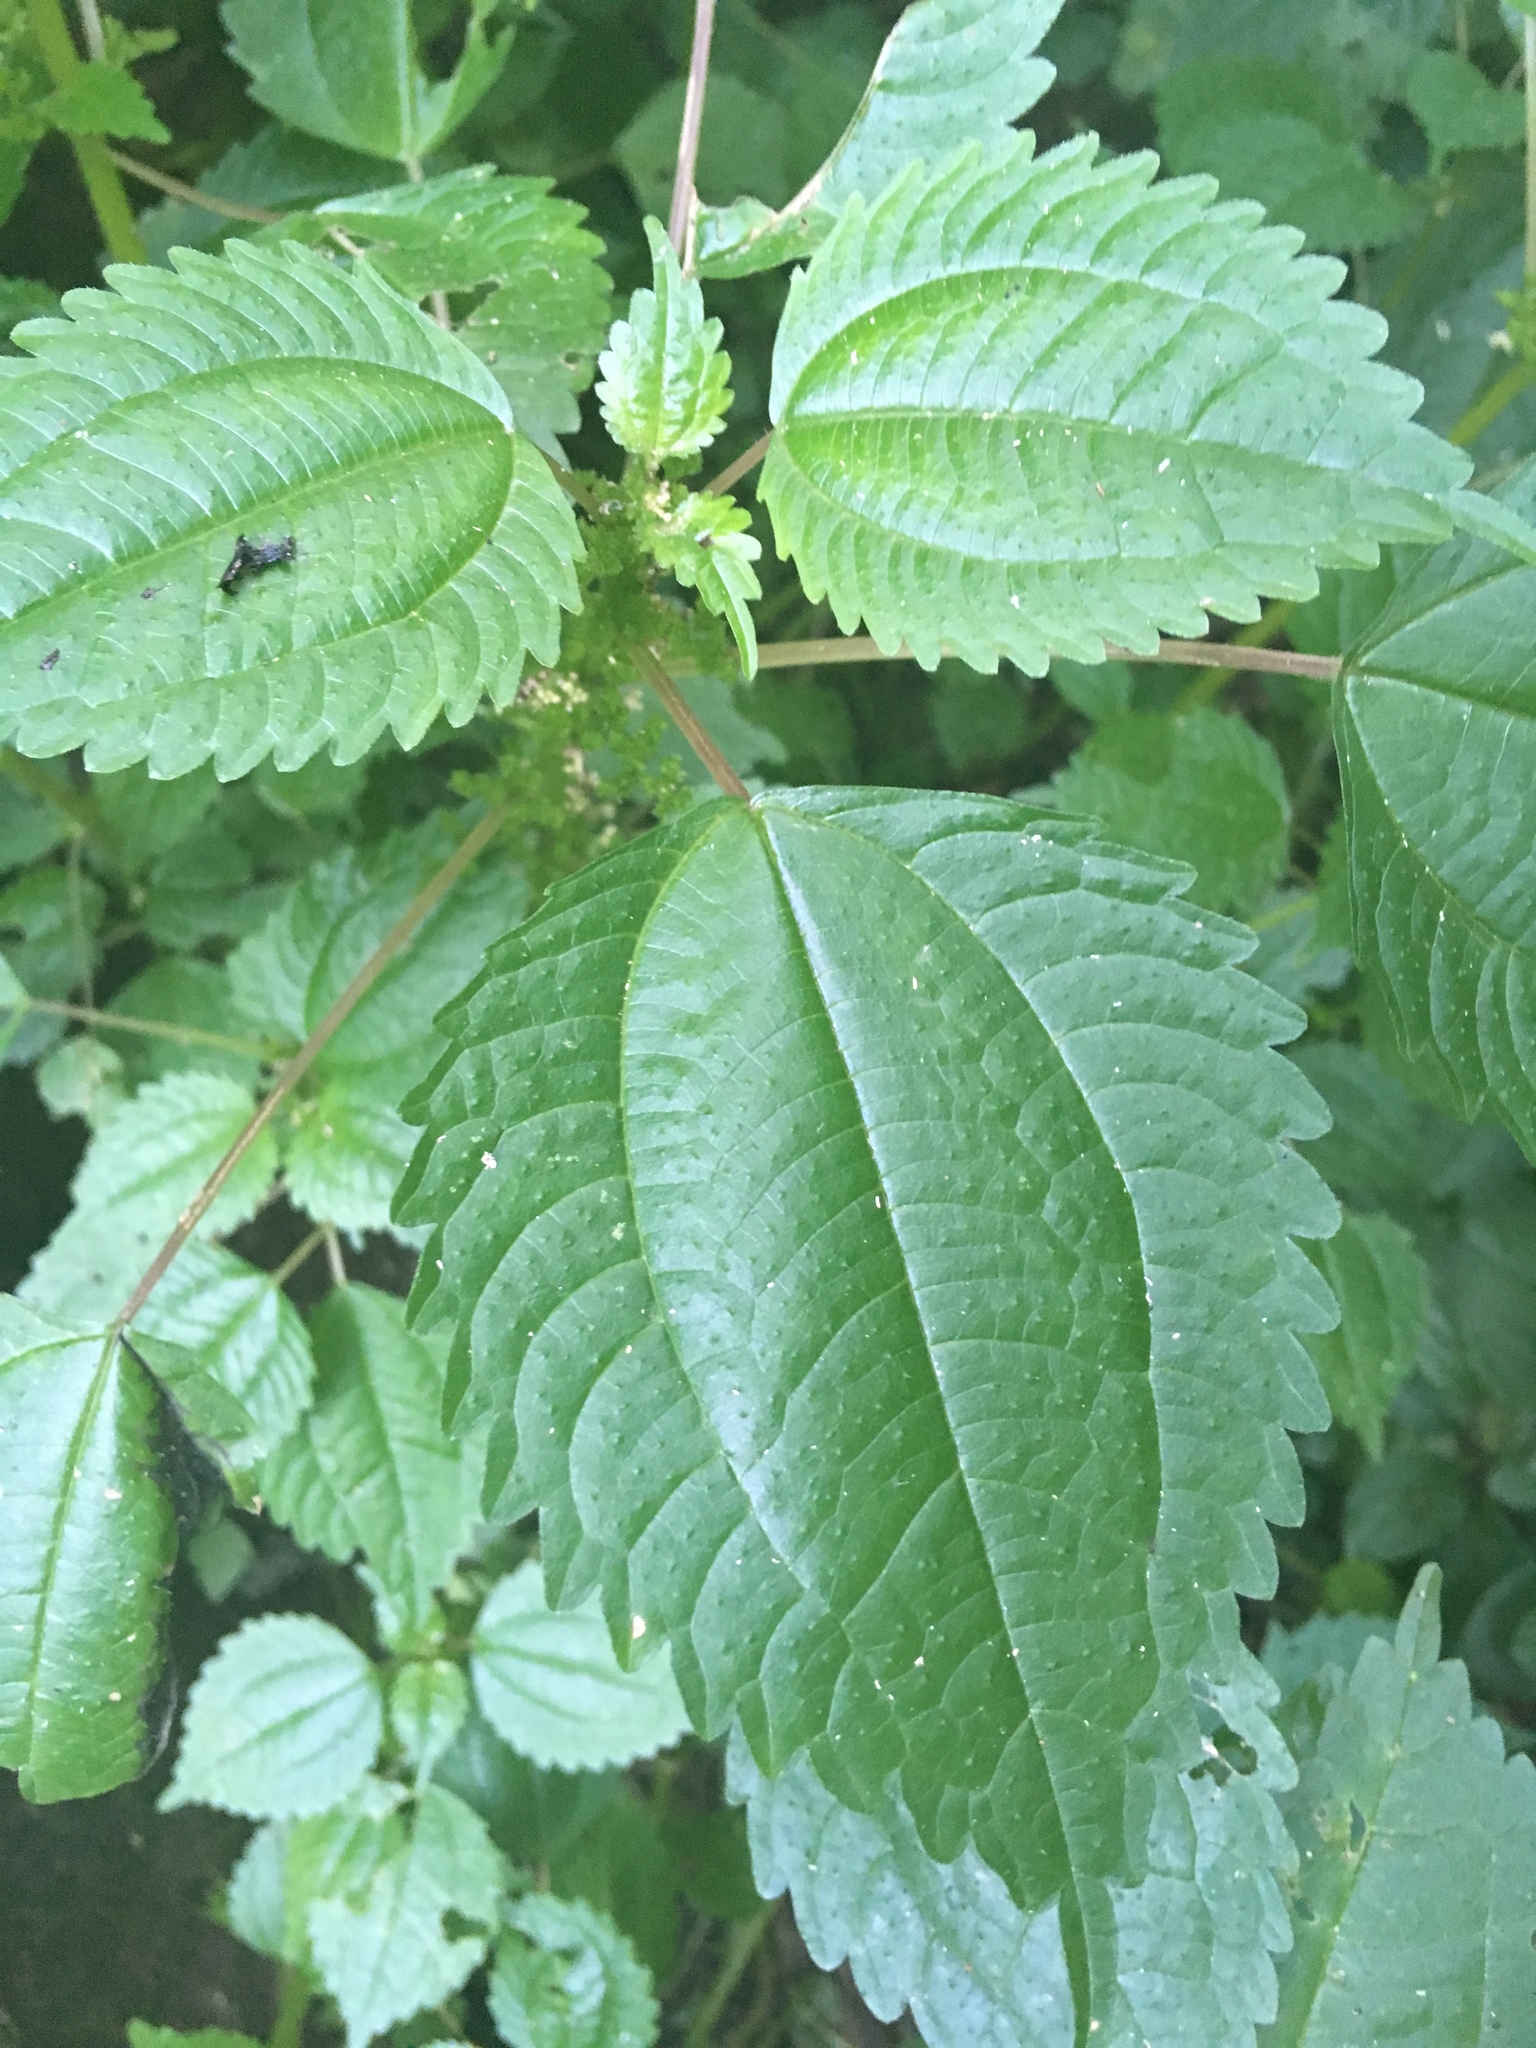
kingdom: Plantae
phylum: Tracheophyta
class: Magnoliopsida
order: Rosales
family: Urticaceae
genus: Pilea
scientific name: Pilea pumila
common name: Clearweed
